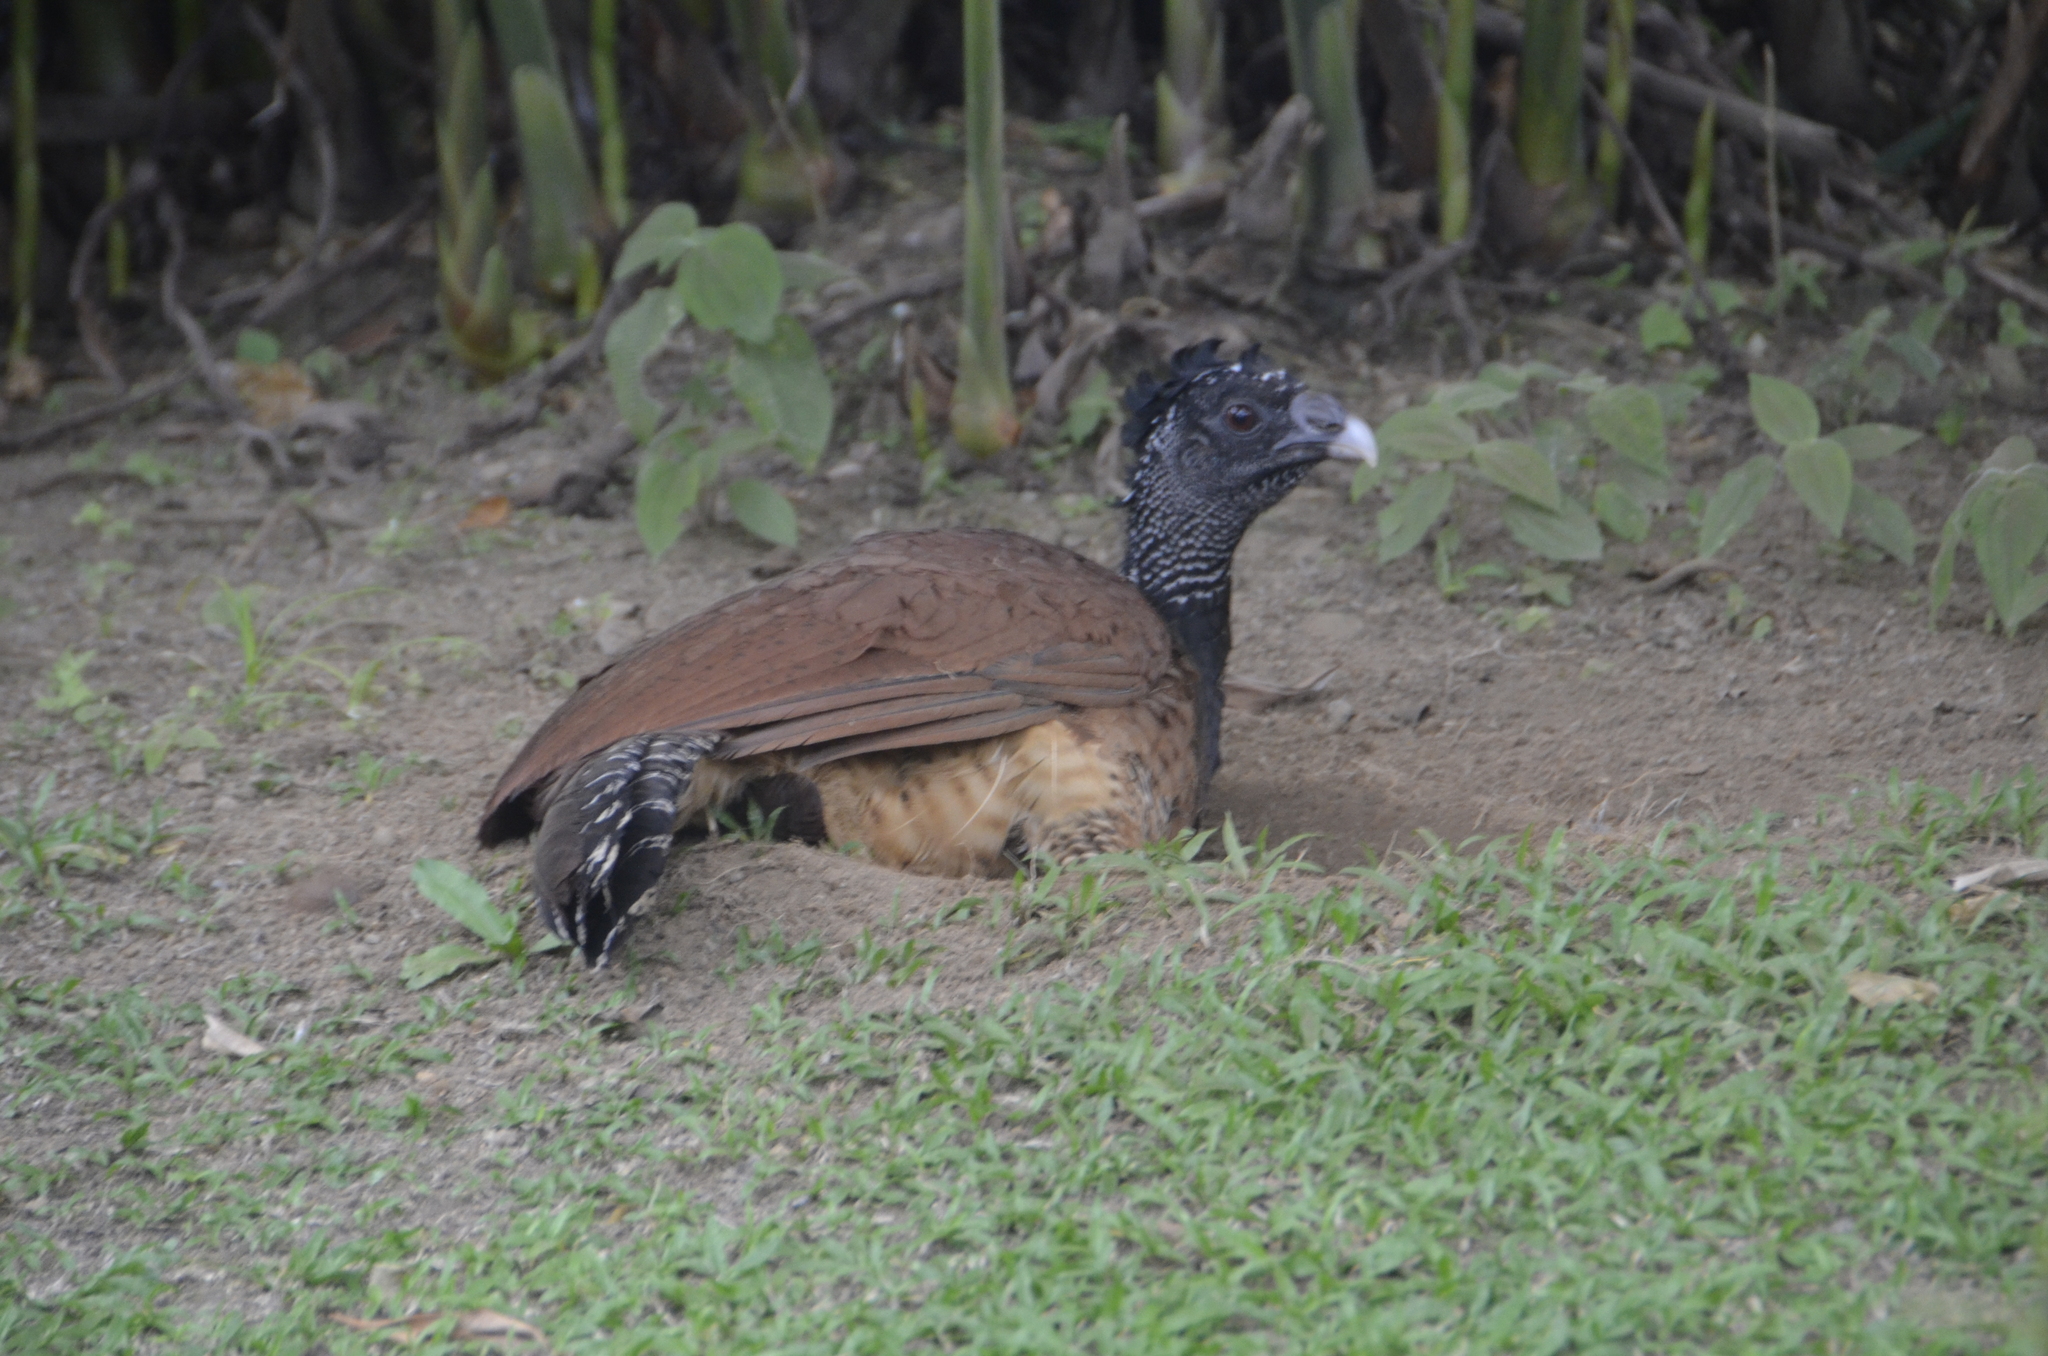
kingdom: Animalia
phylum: Chordata
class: Aves
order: Galliformes
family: Cracidae
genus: Crax
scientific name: Crax rubra
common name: Great curassow
